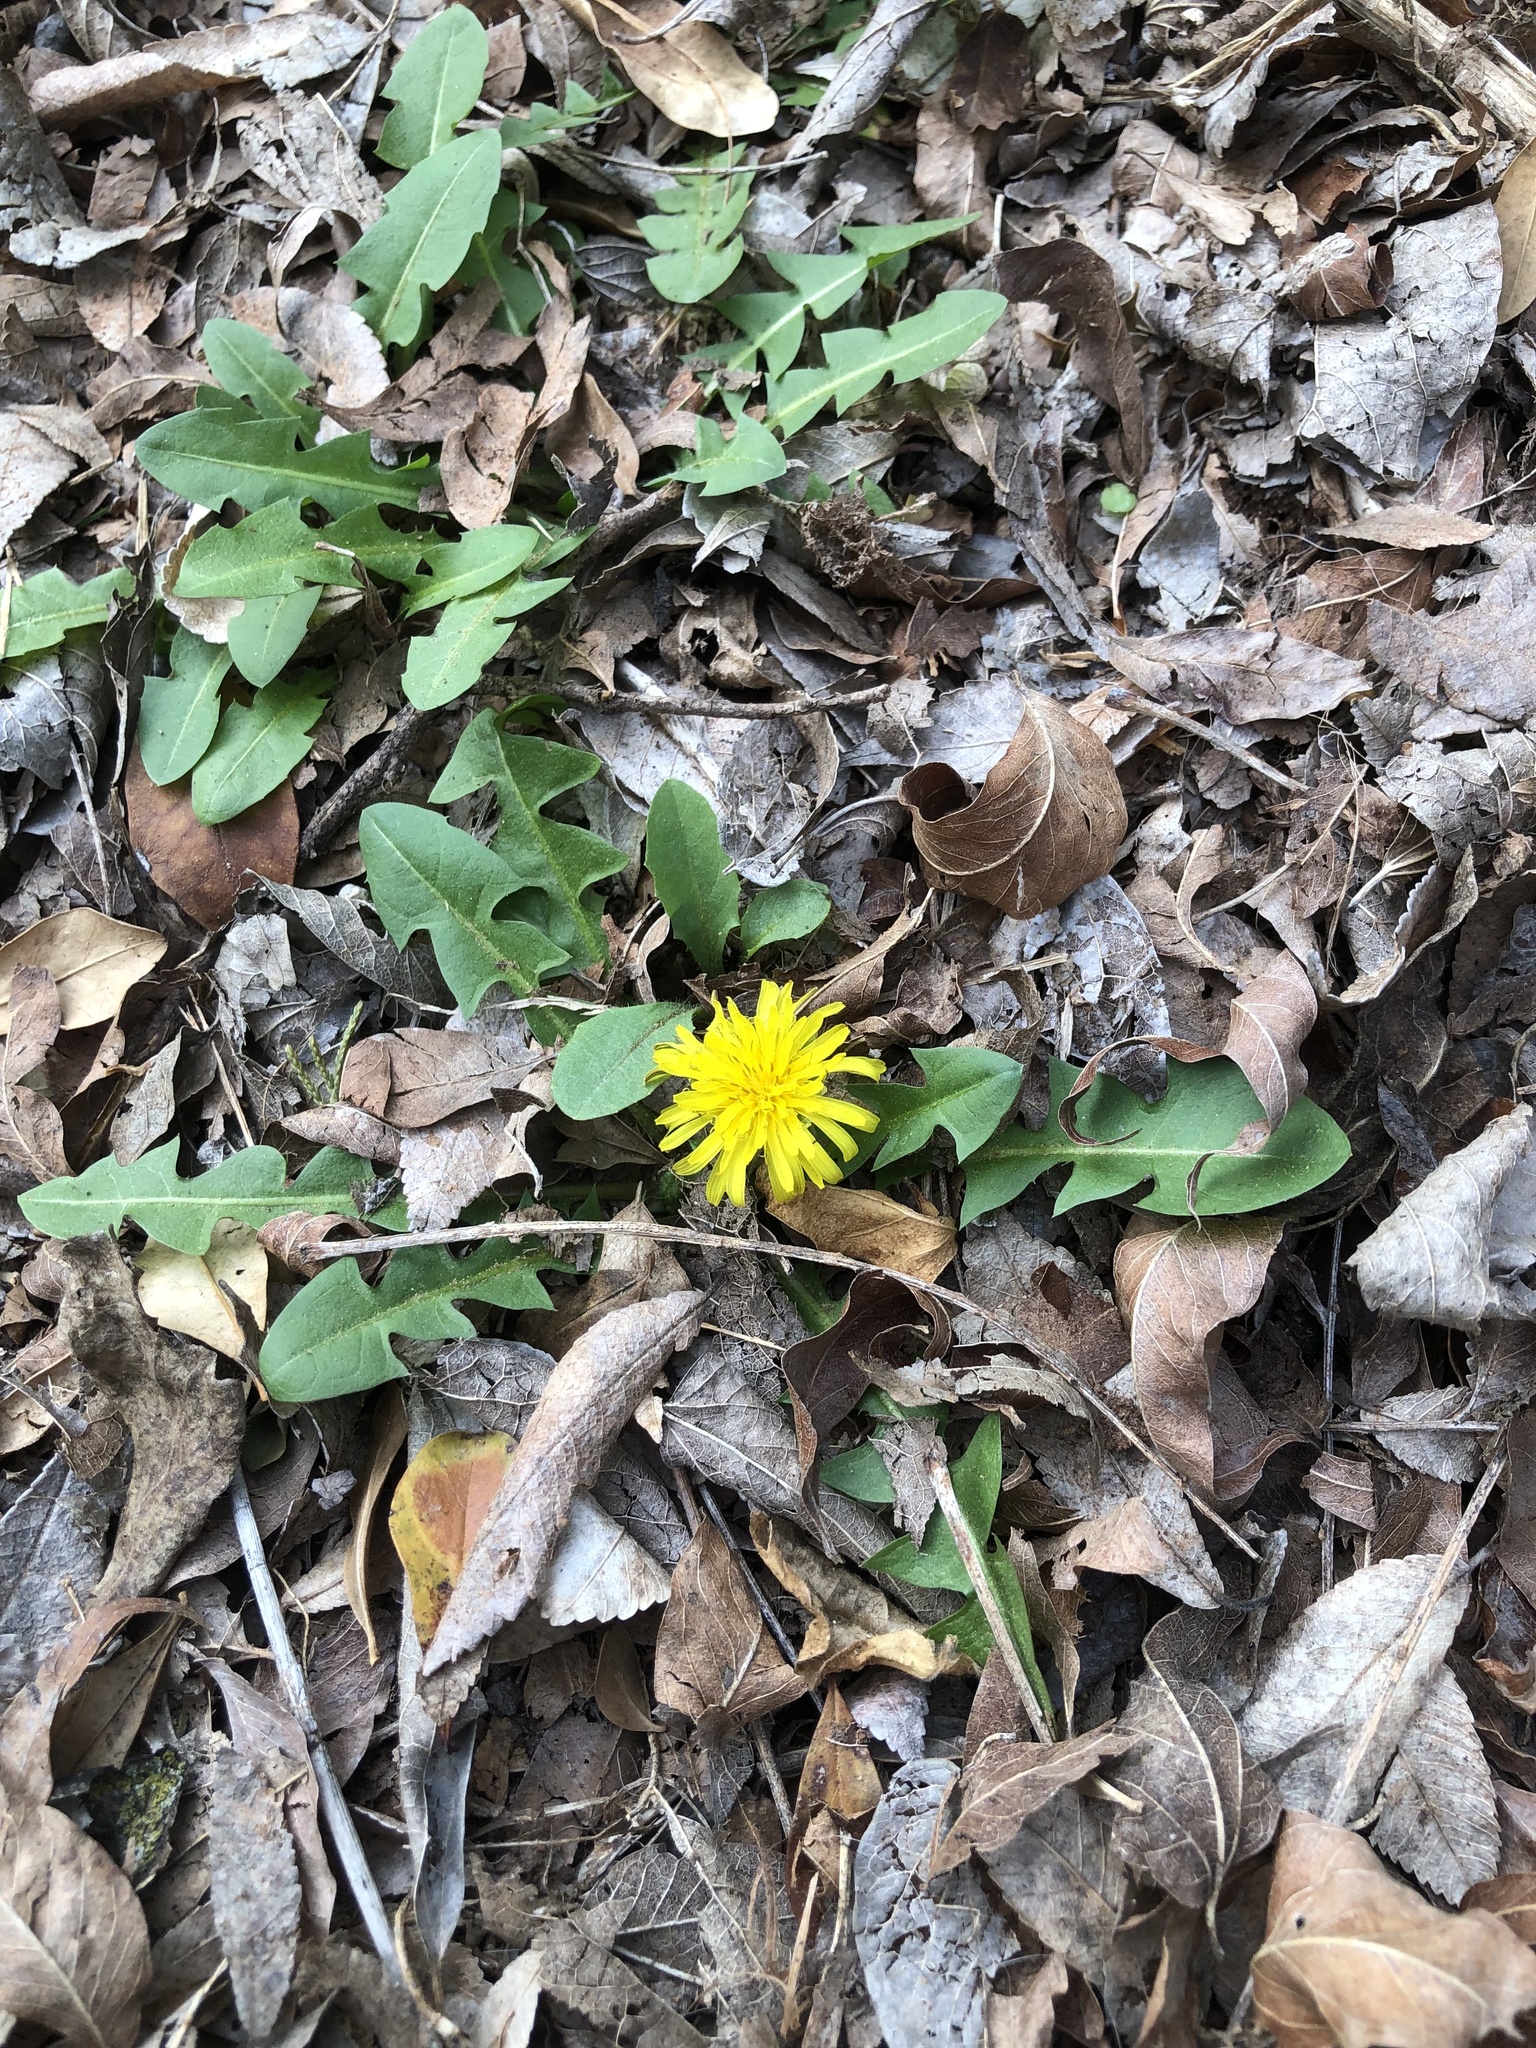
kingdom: Plantae
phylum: Tracheophyta
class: Magnoliopsida
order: Asterales
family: Asteraceae
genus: Taraxacum
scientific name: Taraxacum
